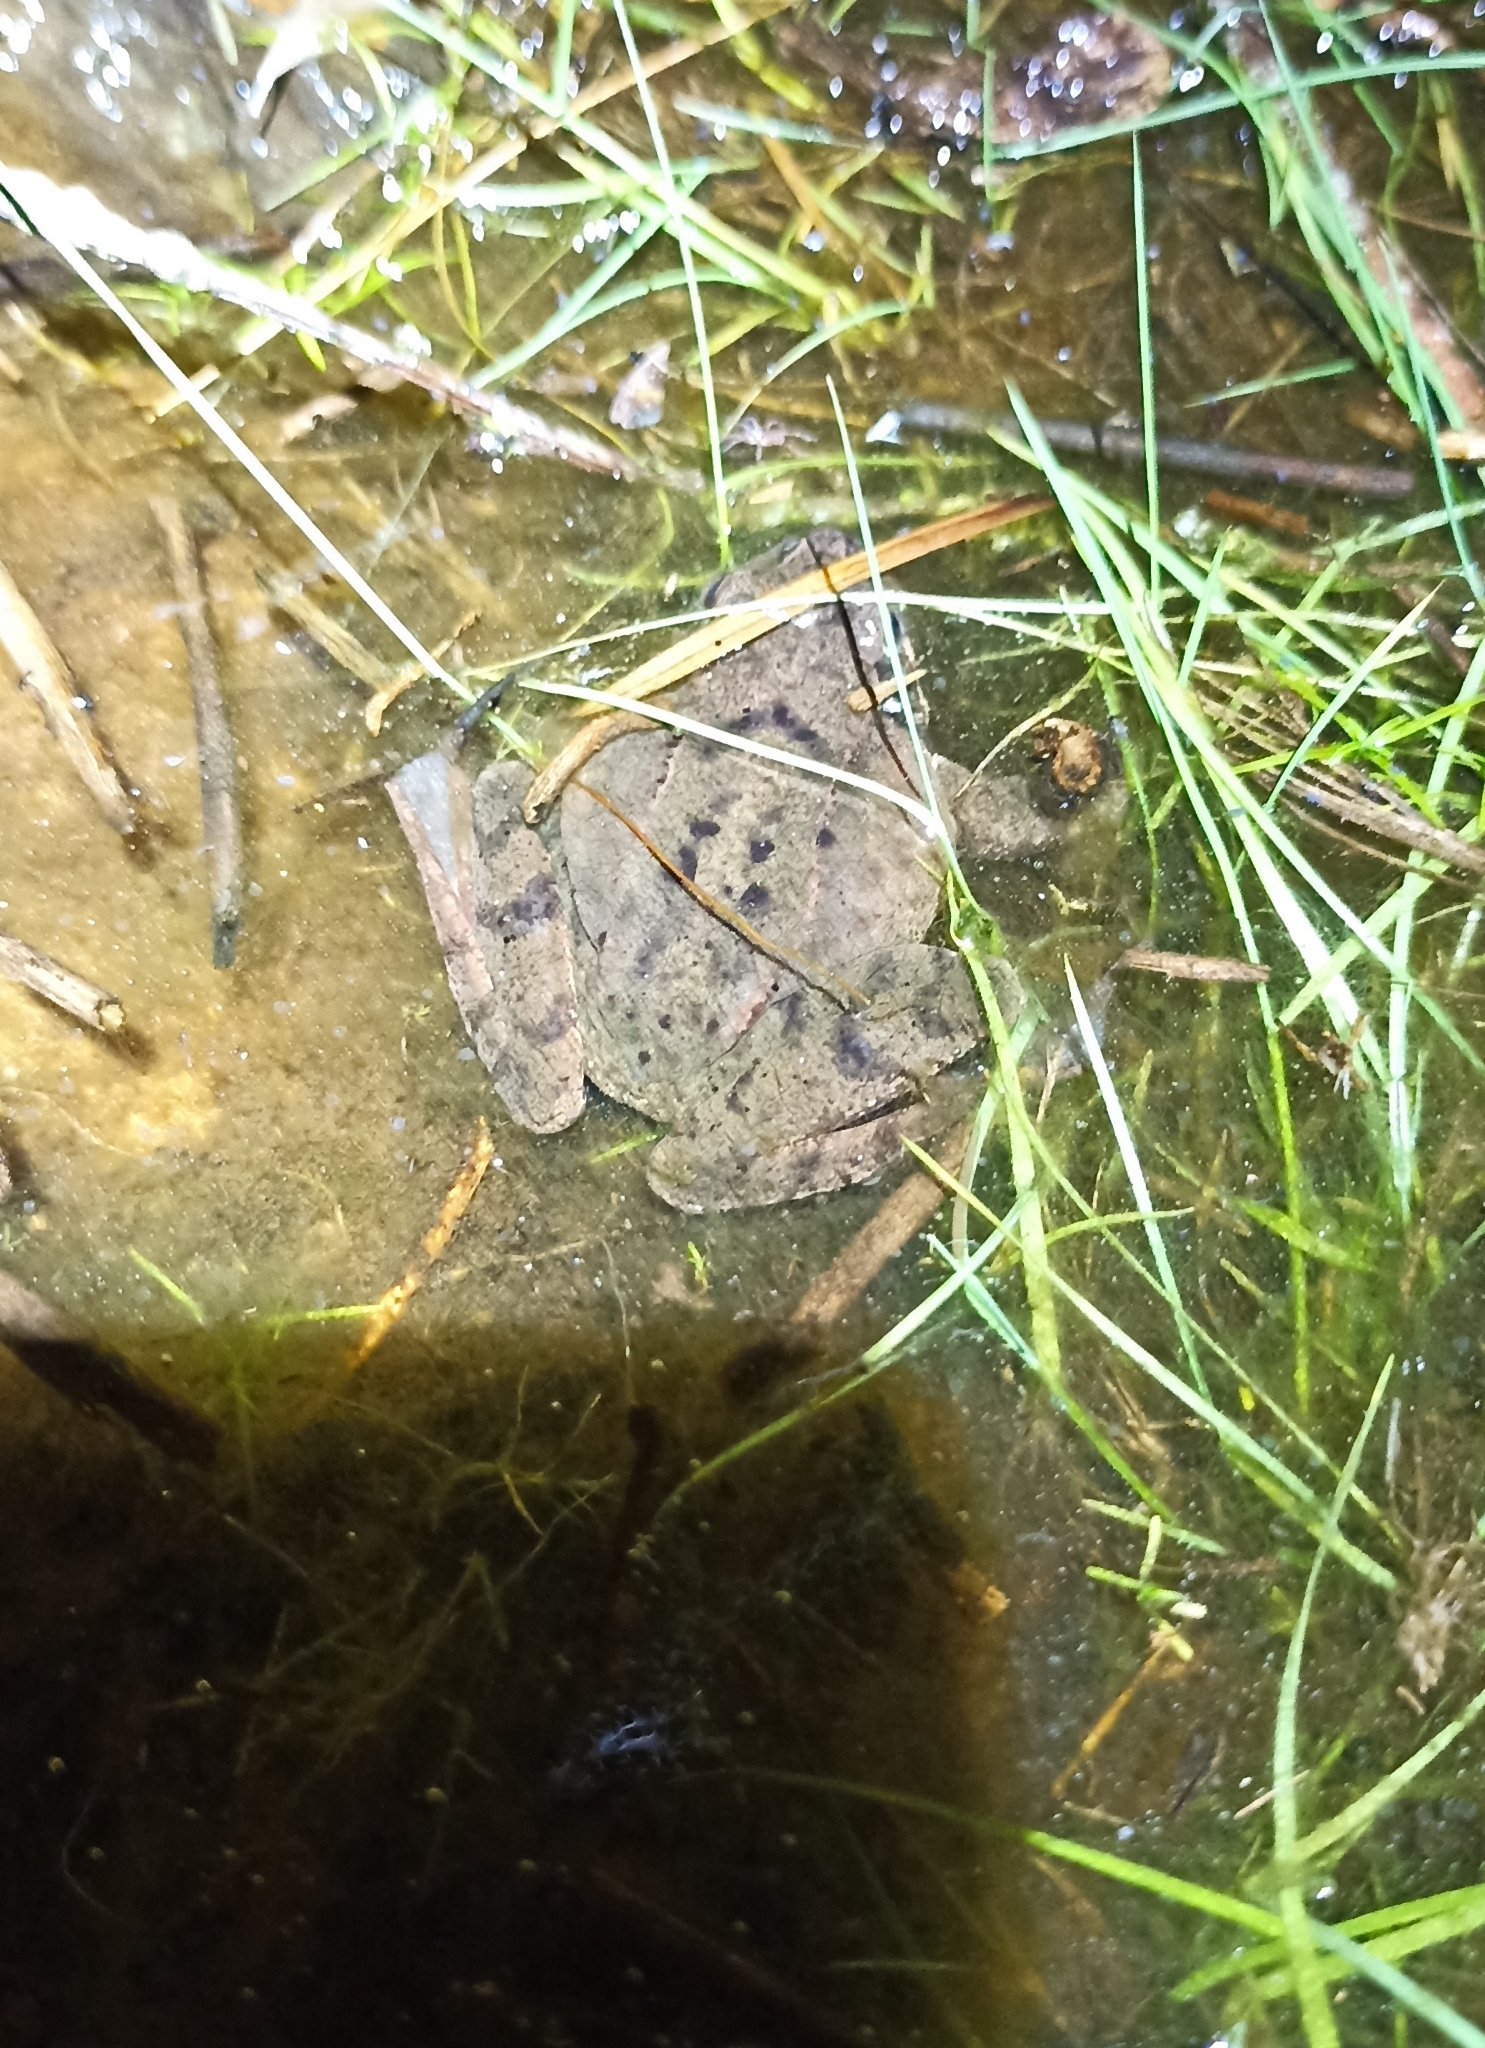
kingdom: Animalia
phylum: Chordata
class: Amphibia
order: Anura
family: Ranidae
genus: Rana
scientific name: Rana dalmatina
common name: Agile frog
